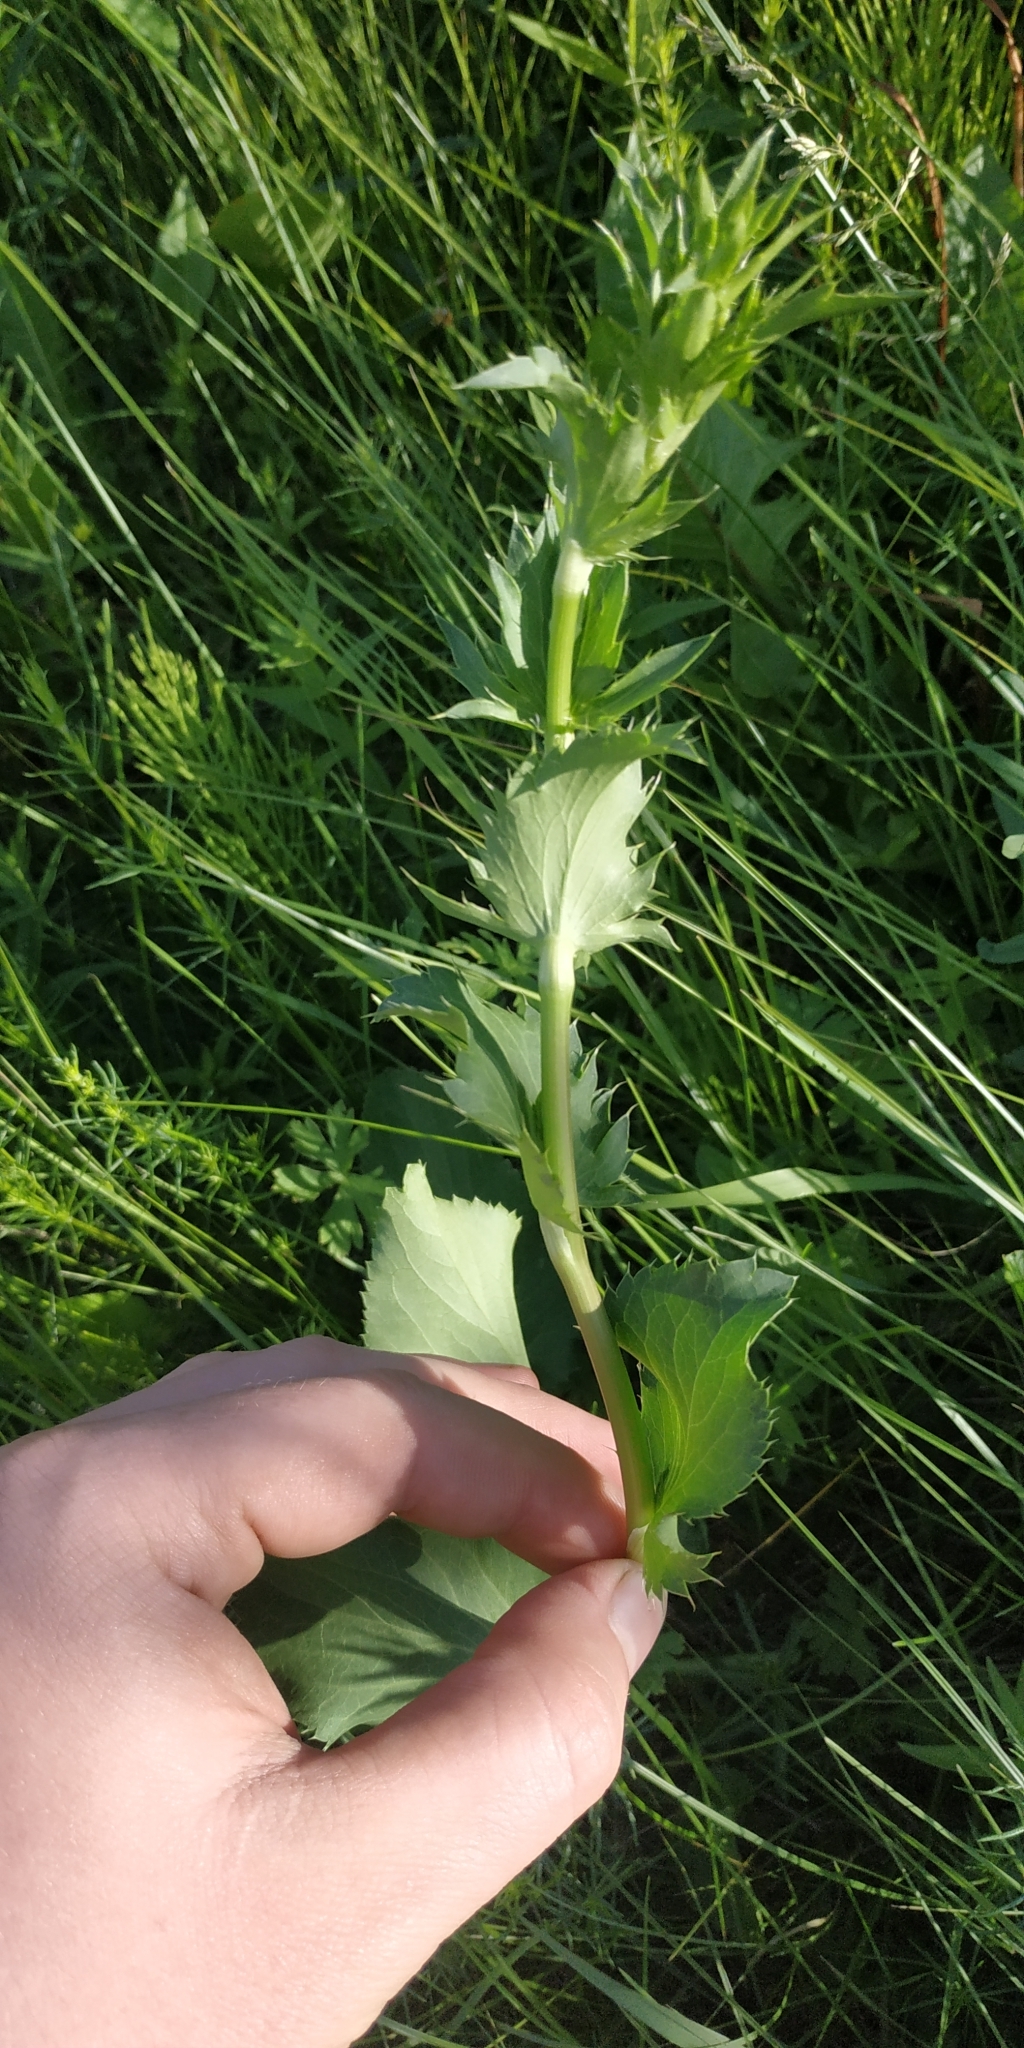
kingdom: Plantae
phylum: Tracheophyta
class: Magnoliopsida
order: Apiales
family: Apiaceae
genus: Eryngium
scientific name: Eryngium planum
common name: Blue eryngo
